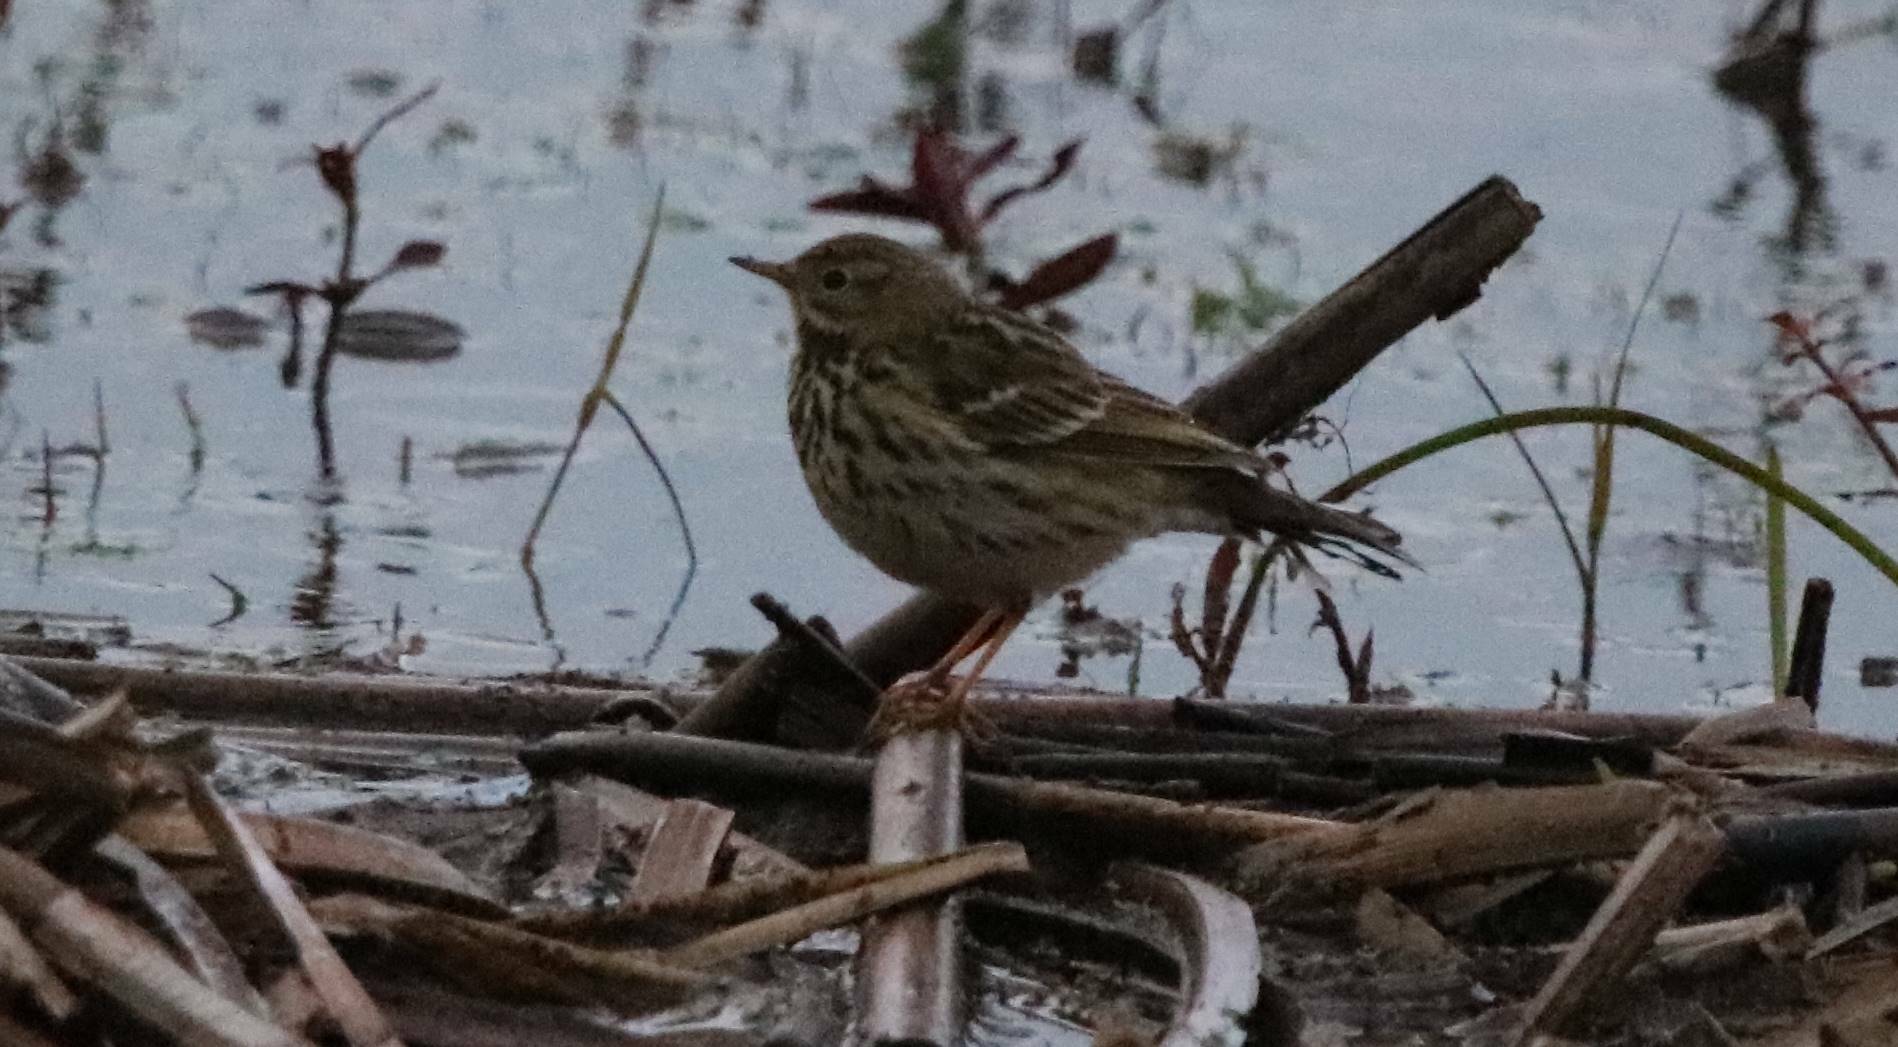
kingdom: Animalia
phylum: Chordata
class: Aves
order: Passeriformes
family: Motacillidae
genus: Anthus
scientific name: Anthus pratensis
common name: Meadow pipit
